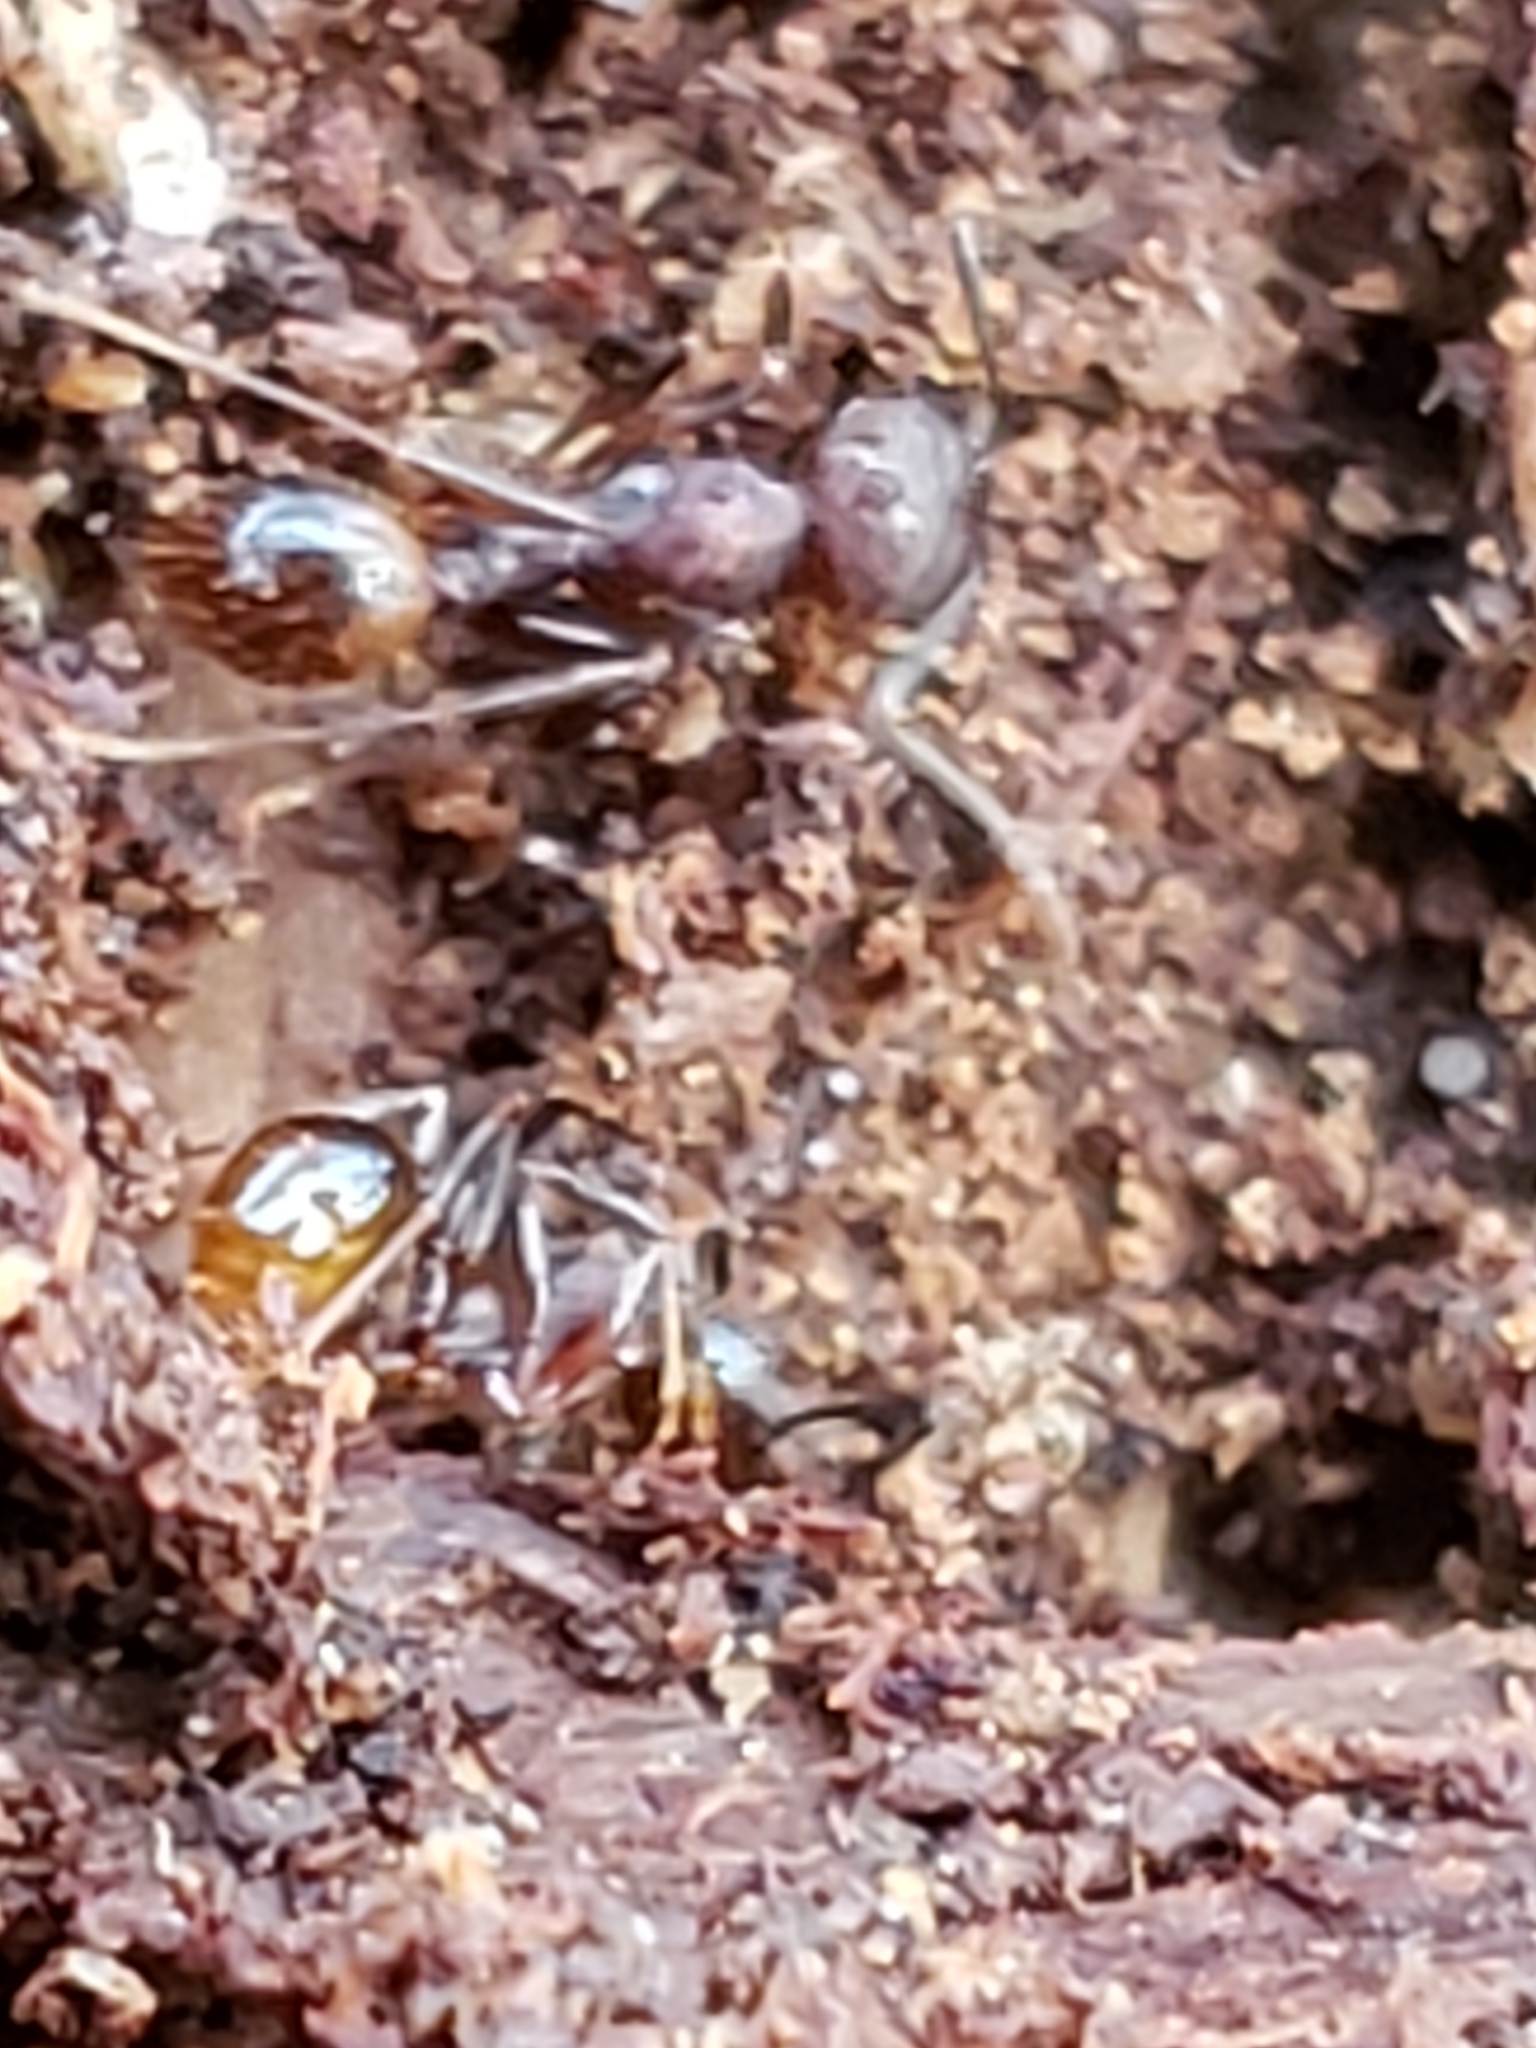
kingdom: Animalia
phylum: Arthropoda
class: Insecta
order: Hymenoptera
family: Formicidae
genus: Aphaenogaster
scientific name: Aphaenogaster fulva
